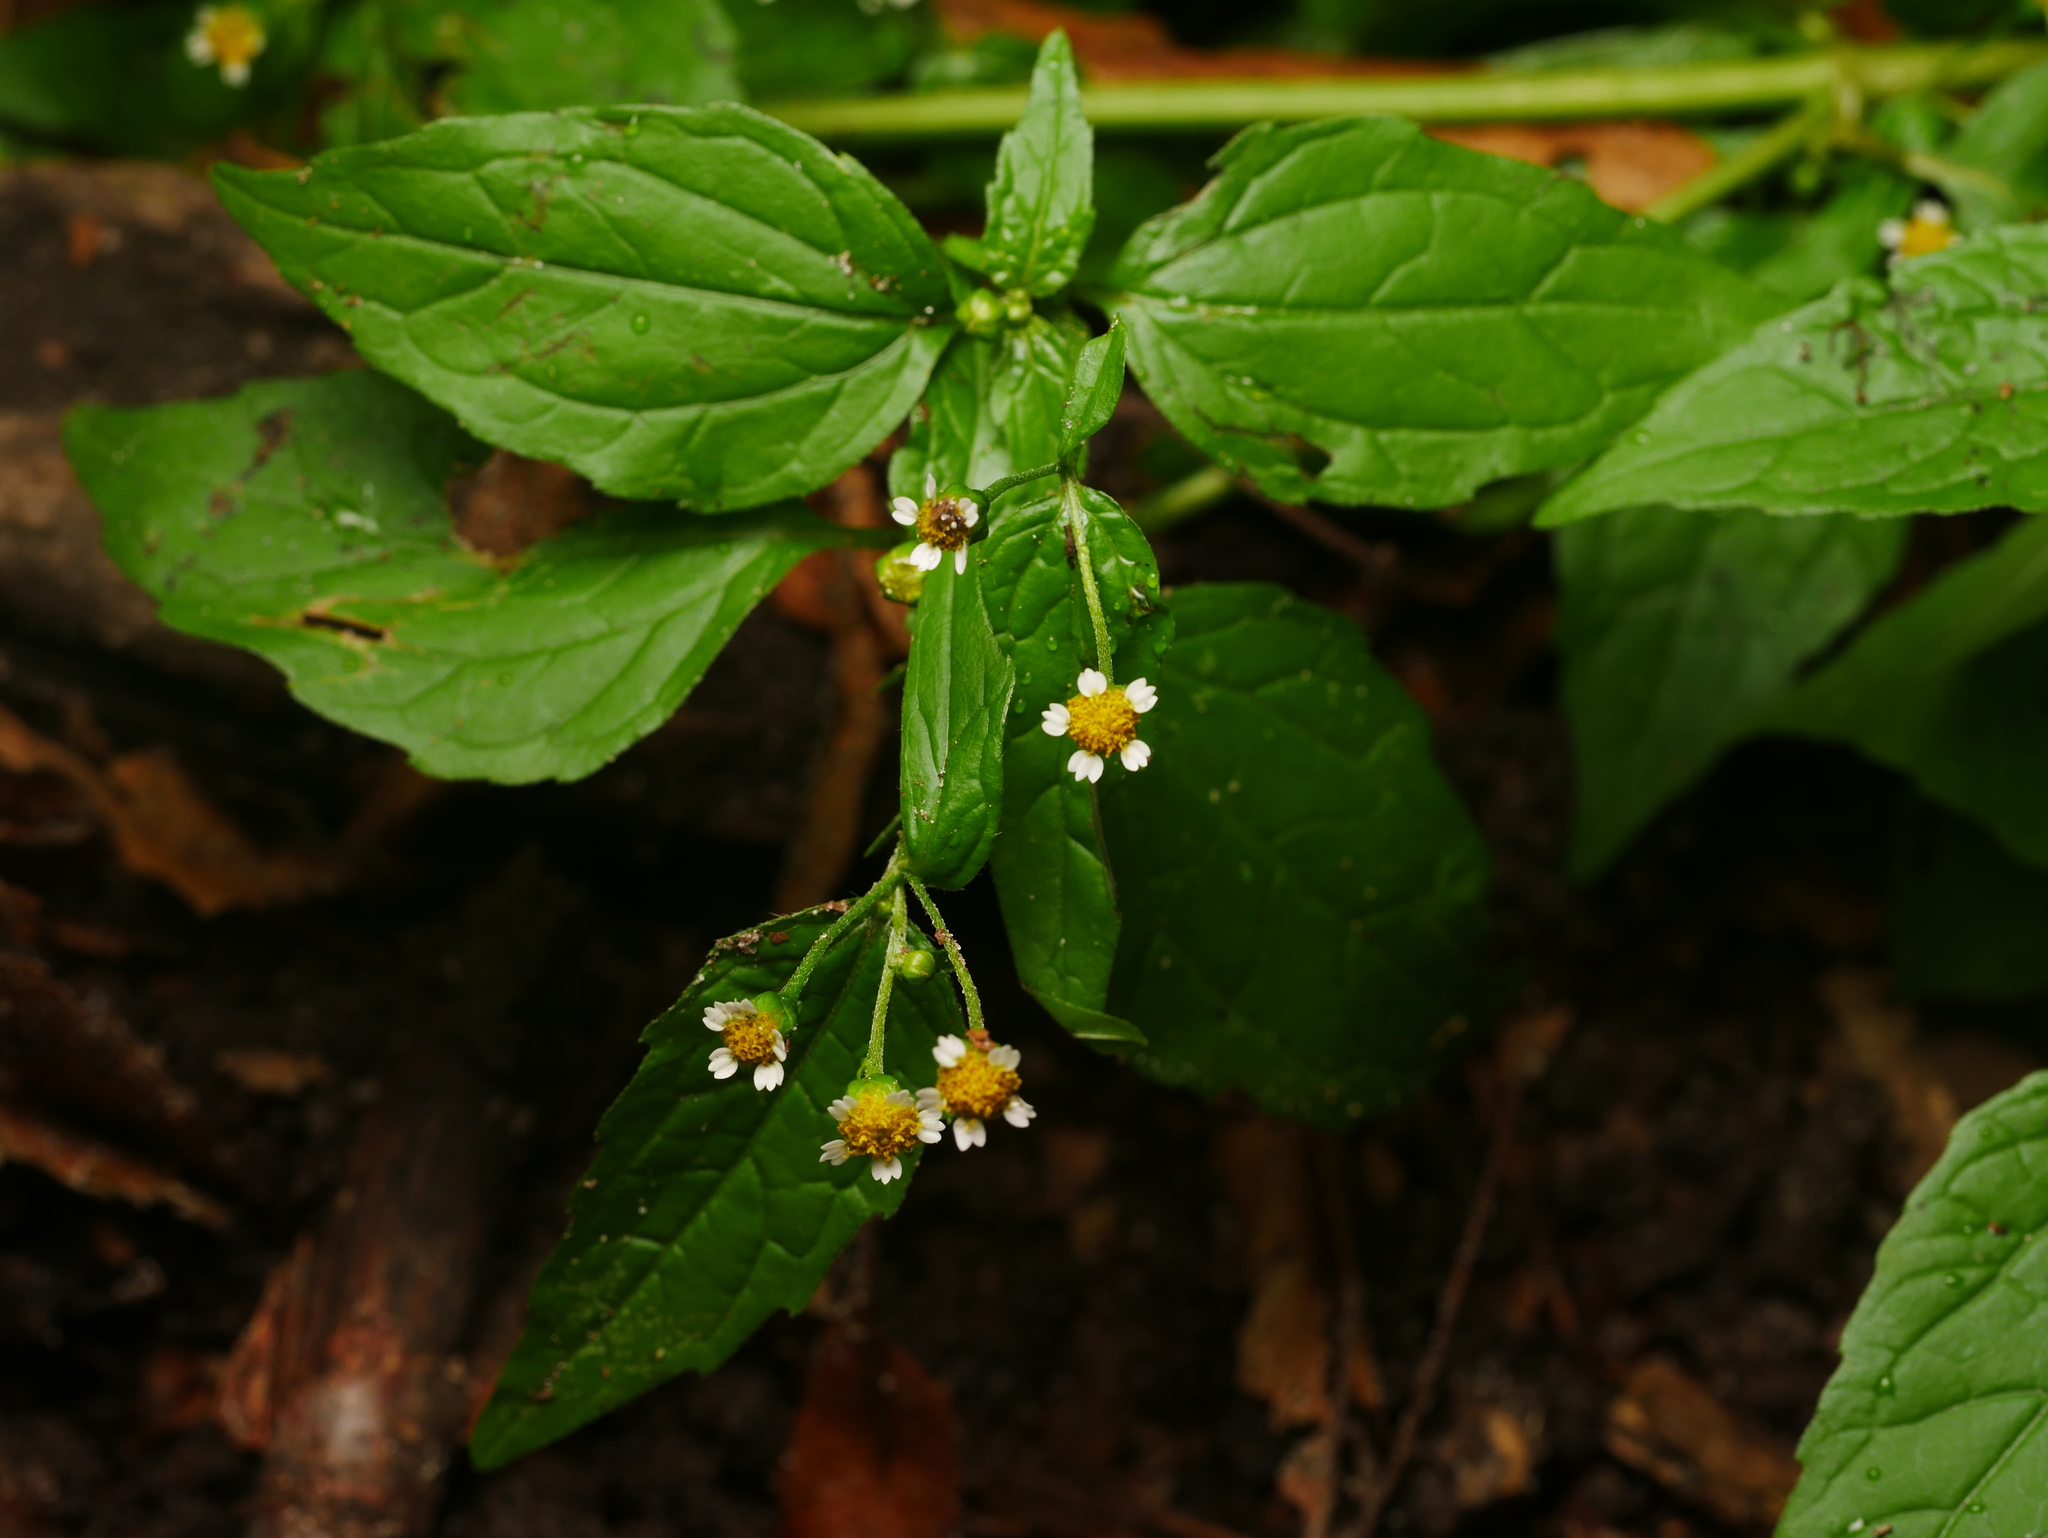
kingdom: Plantae
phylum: Tracheophyta
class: Magnoliopsida
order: Asterales
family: Asteraceae
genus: Galinsoga
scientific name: Galinsoga parviflora
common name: Gallant soldier
